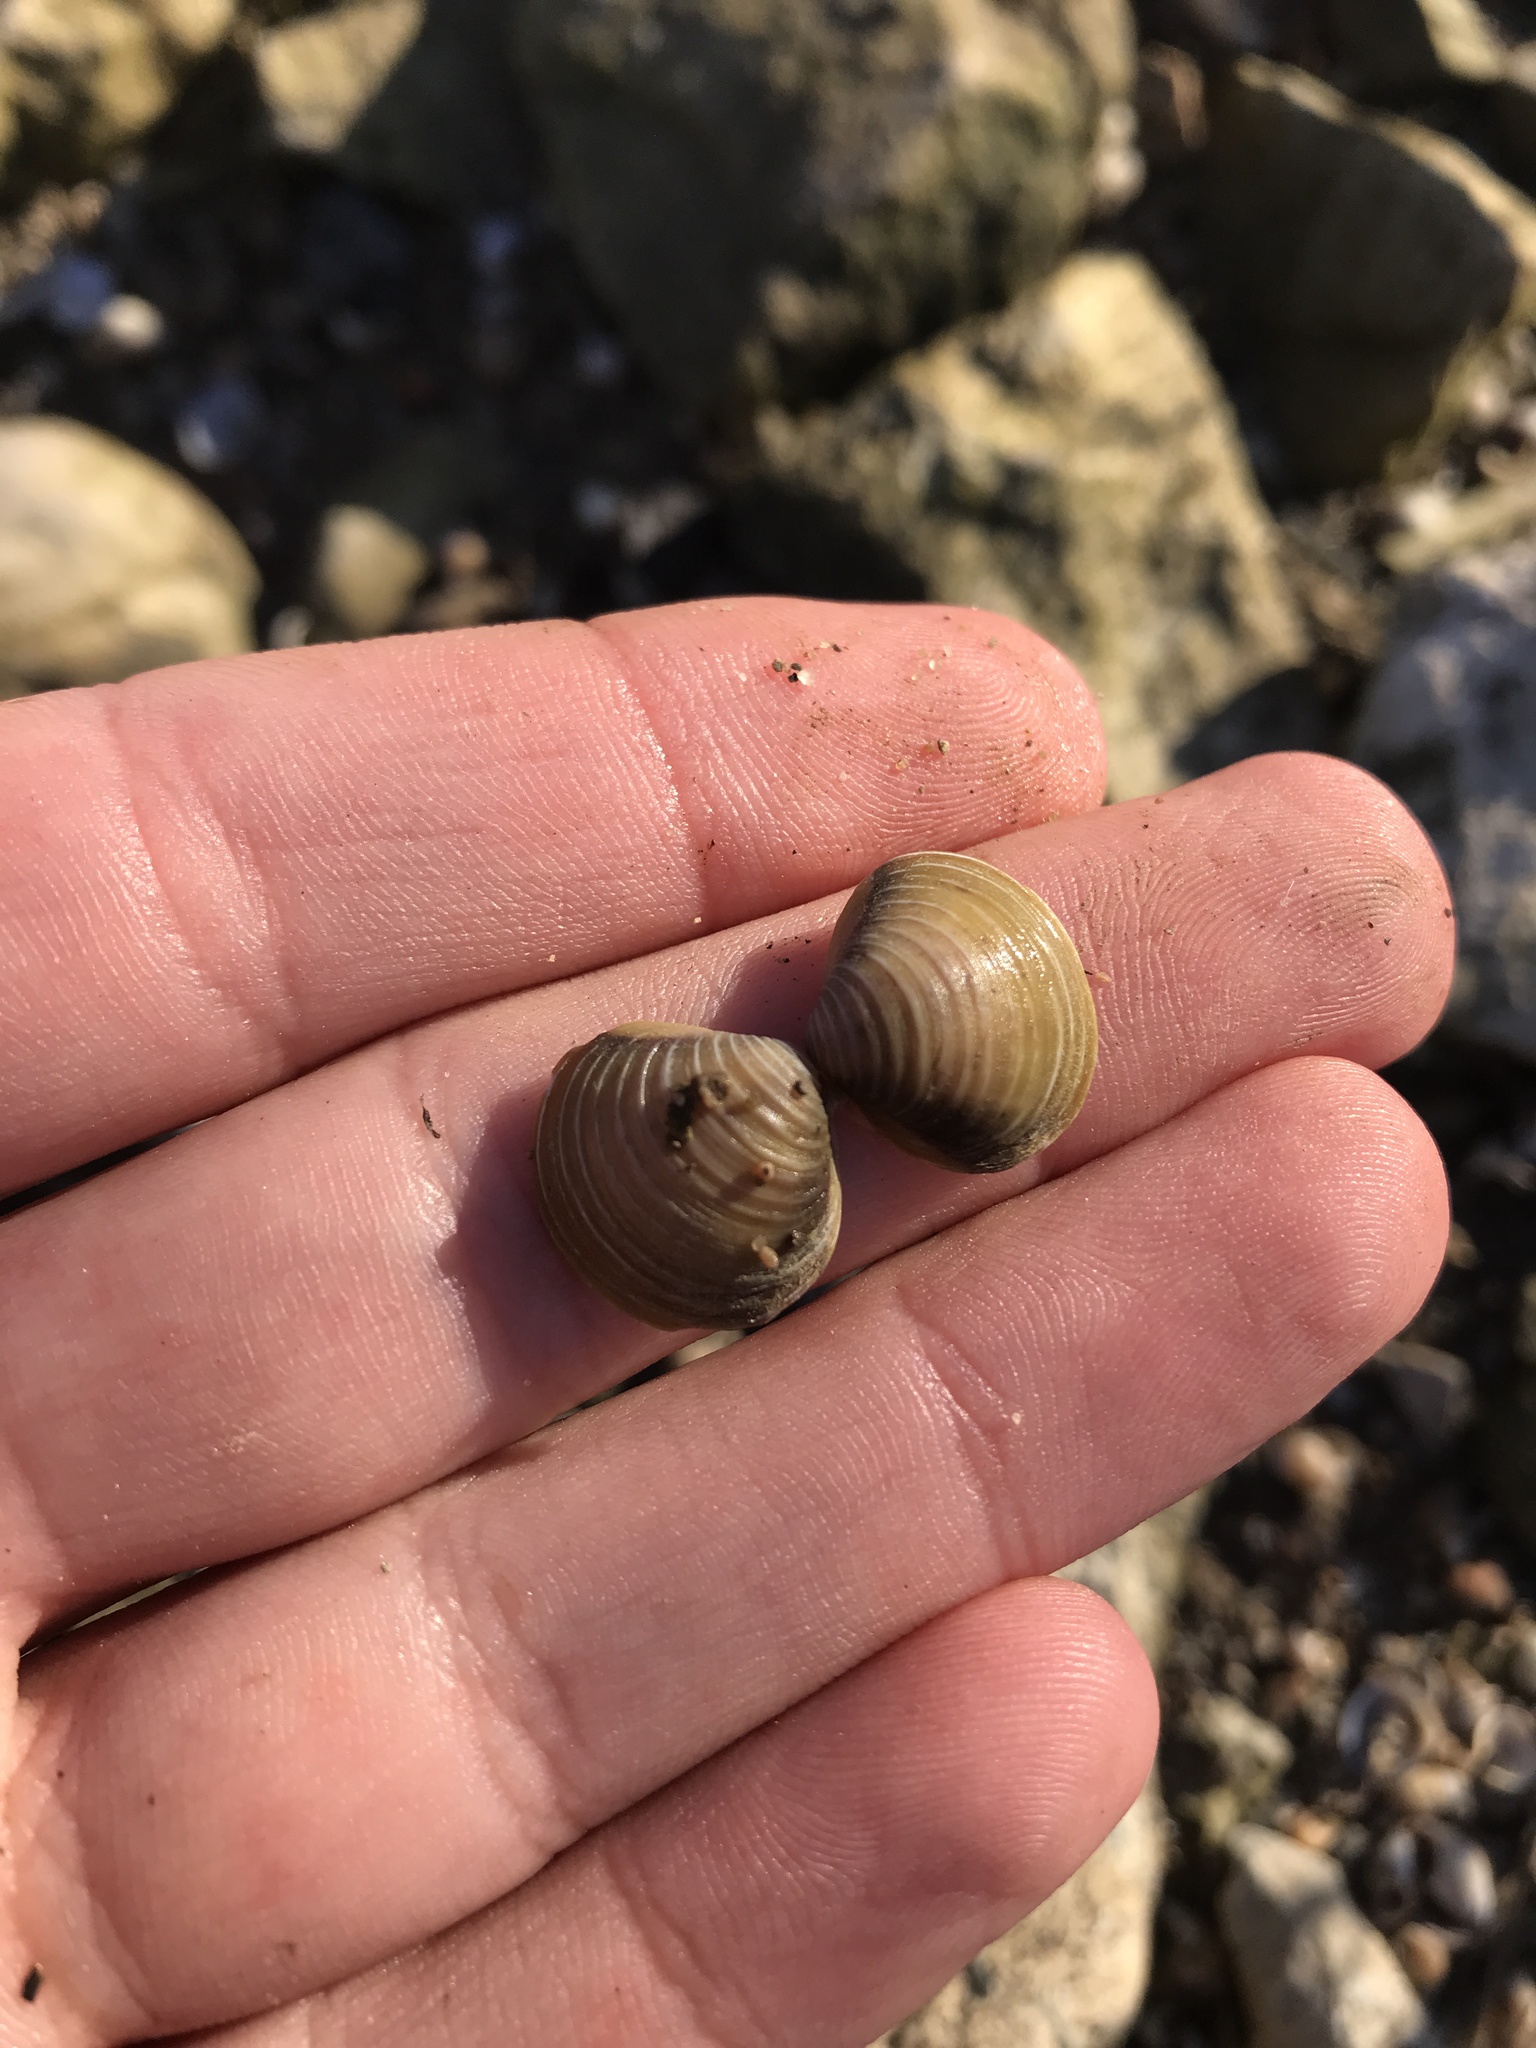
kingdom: Animalia
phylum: Mollusca
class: Bivalvia
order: Venerida
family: Cyrenidae
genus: Corbicula
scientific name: Corbicula fluminea
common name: Asian clam
